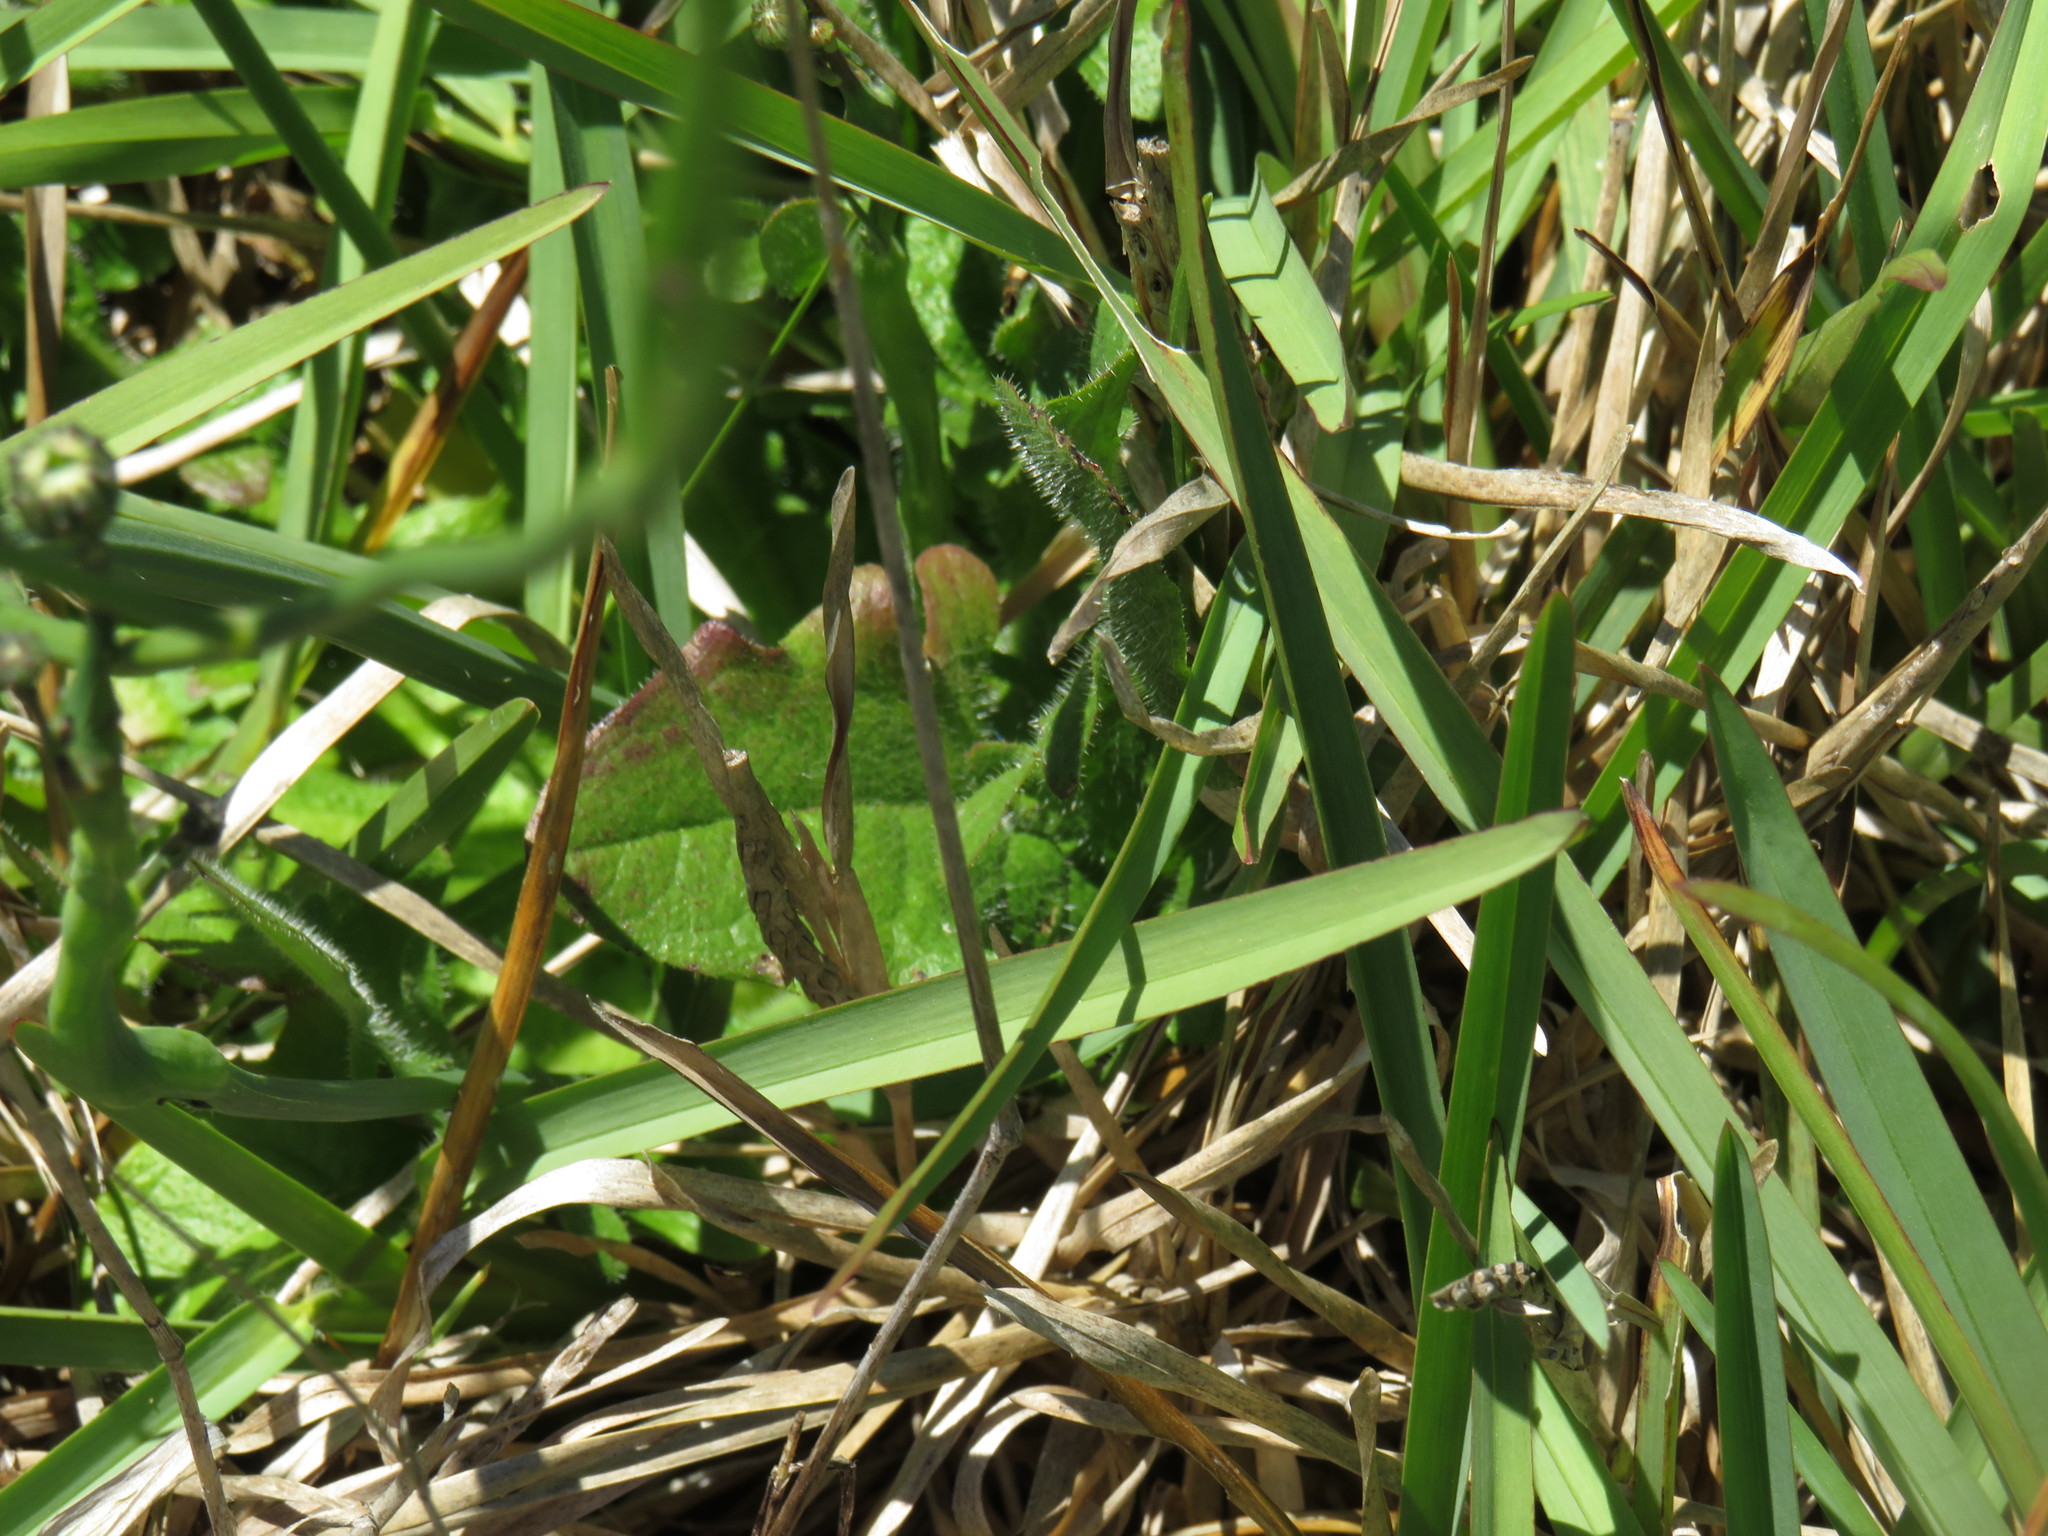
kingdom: Plantae
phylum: Tracheophyta
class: Magnoliopsida
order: Asterales
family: Asteraceae
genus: Hypochaeris
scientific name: Hypochaeris radicata
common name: Flatweed
